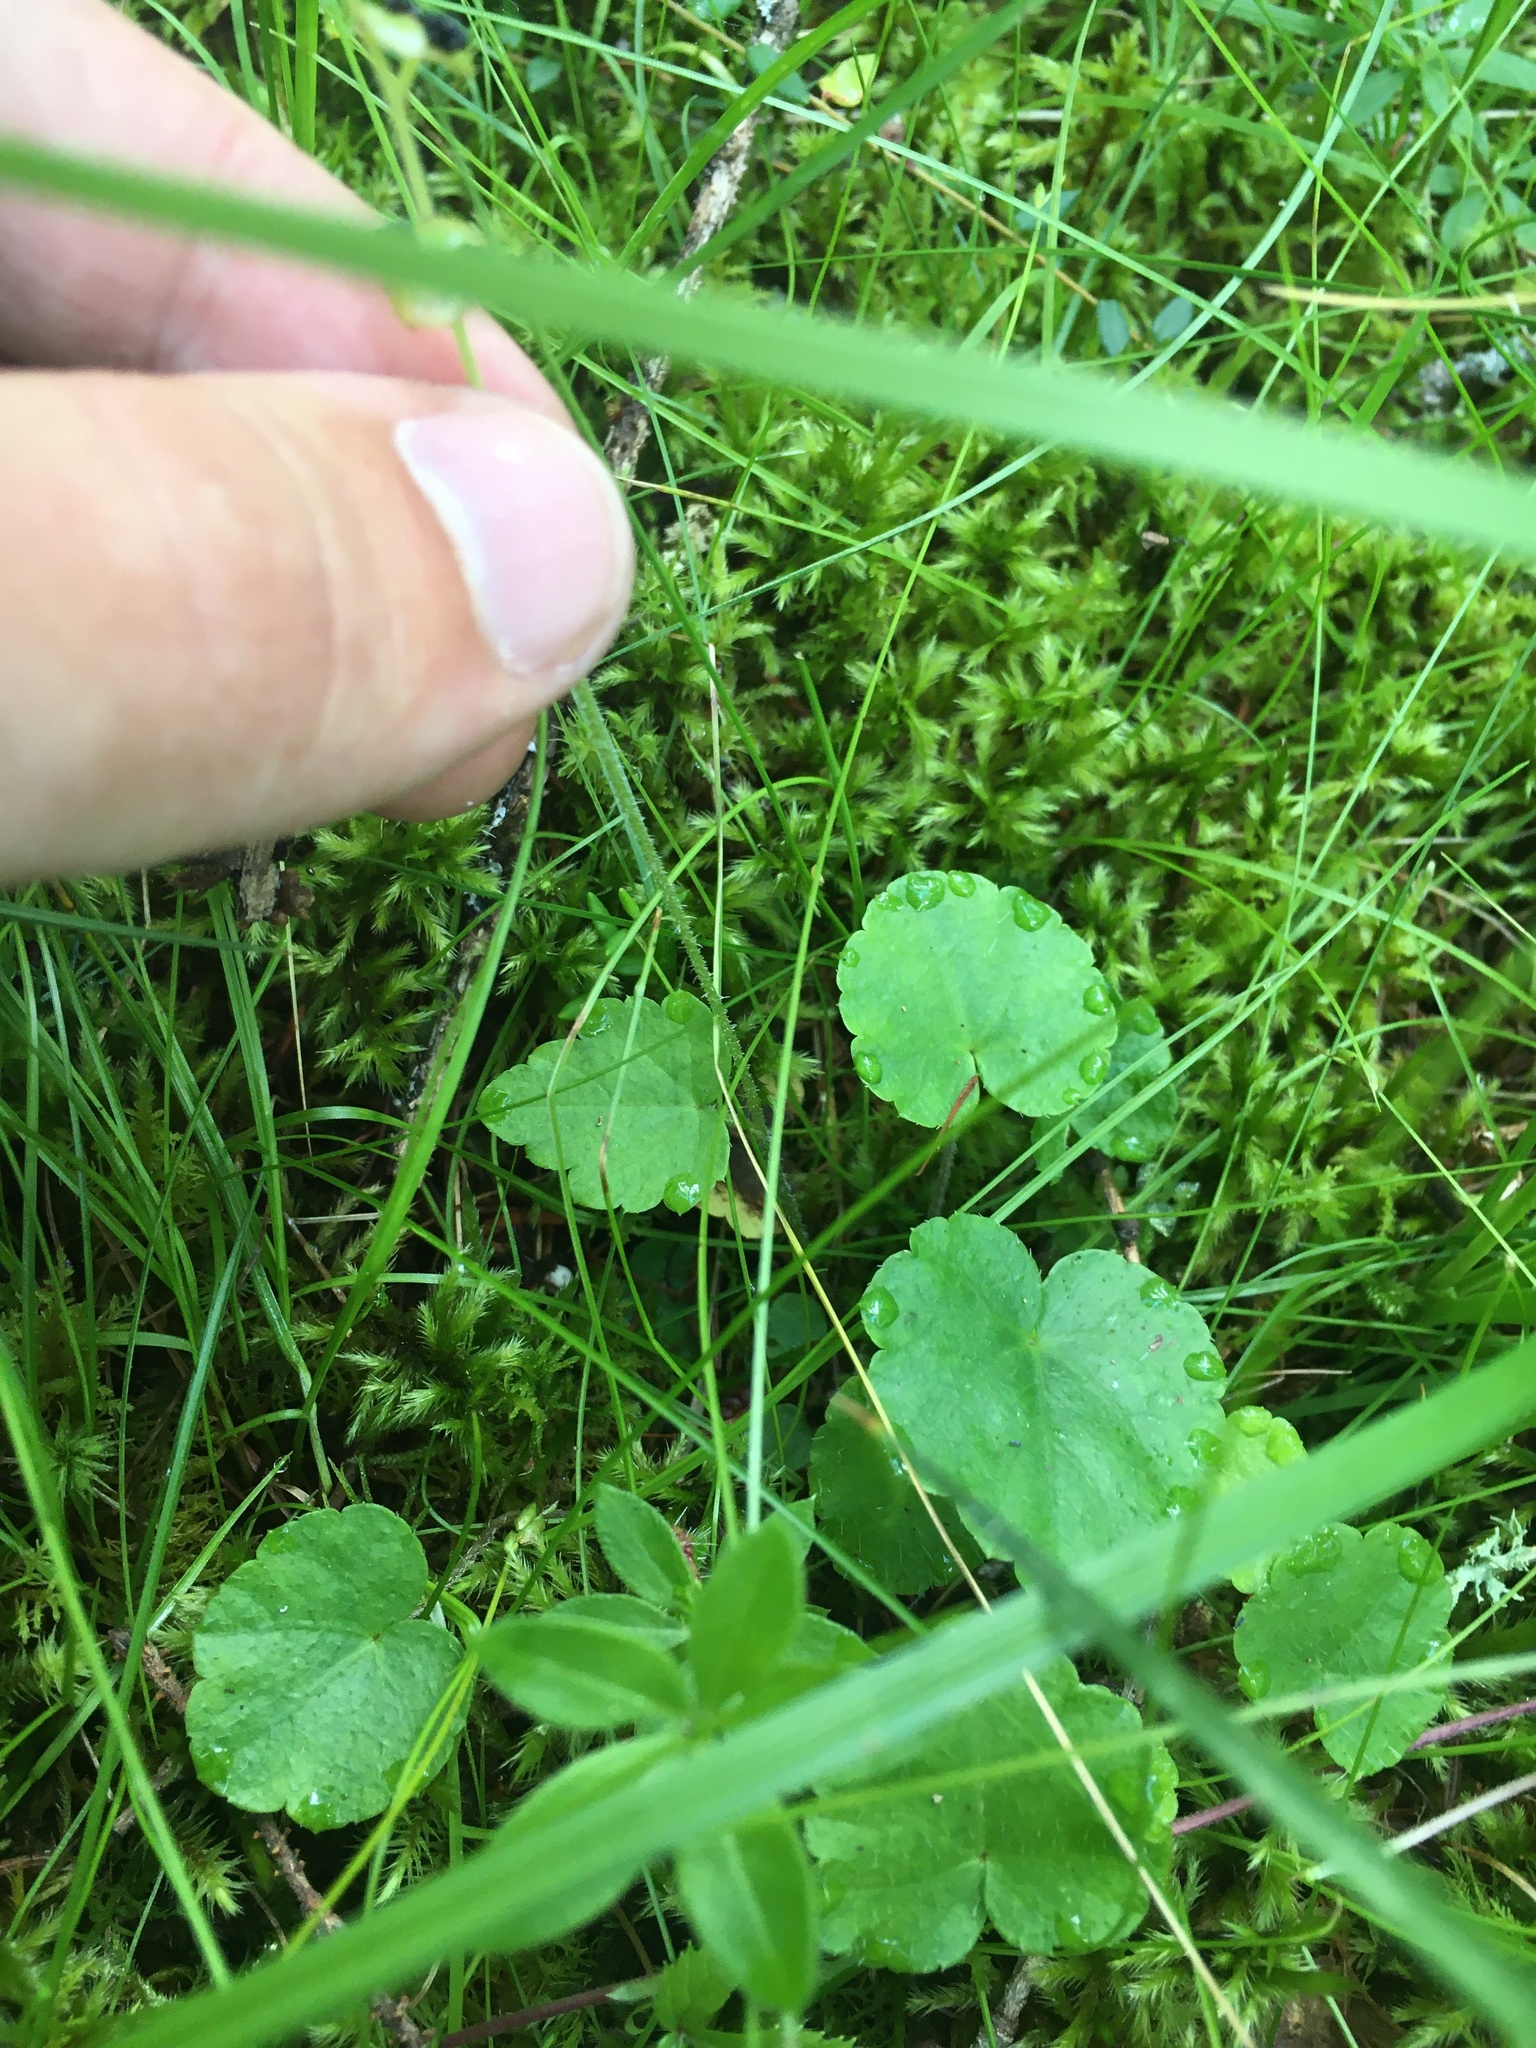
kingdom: Plantae
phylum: Tracheophyta
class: Magnoliopsida
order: Saxifragales
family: Saxifragaceae
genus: Mitella
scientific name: Mitella nuda
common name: Bare-stemmed bishop's-cap
